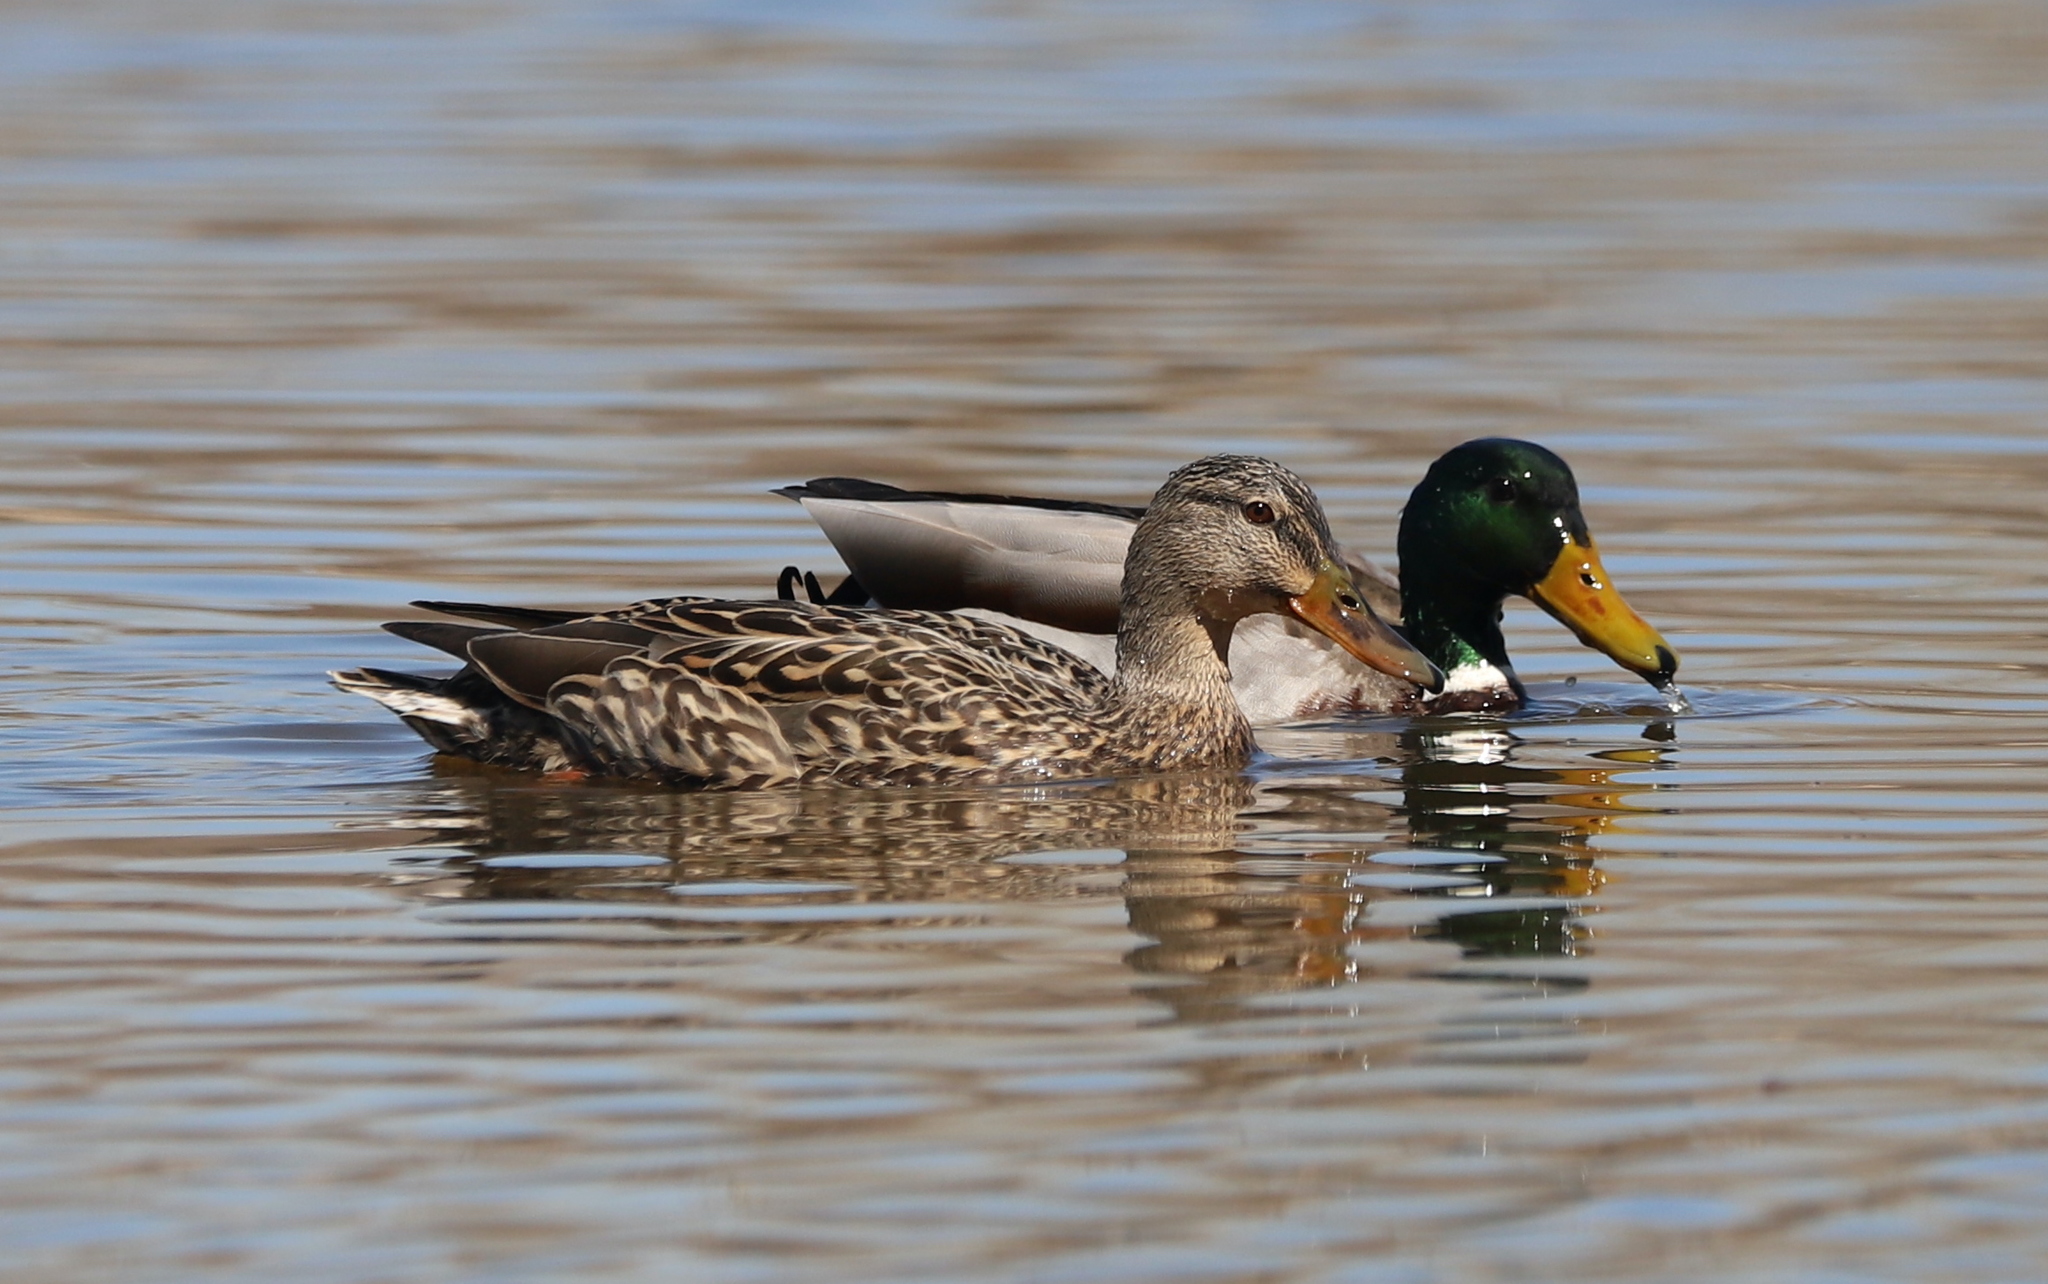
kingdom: Animalia
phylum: Chordata
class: Aves
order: Anseriformes
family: Anatidae
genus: Anas
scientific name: Anas platyrhynchos
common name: Mallard
